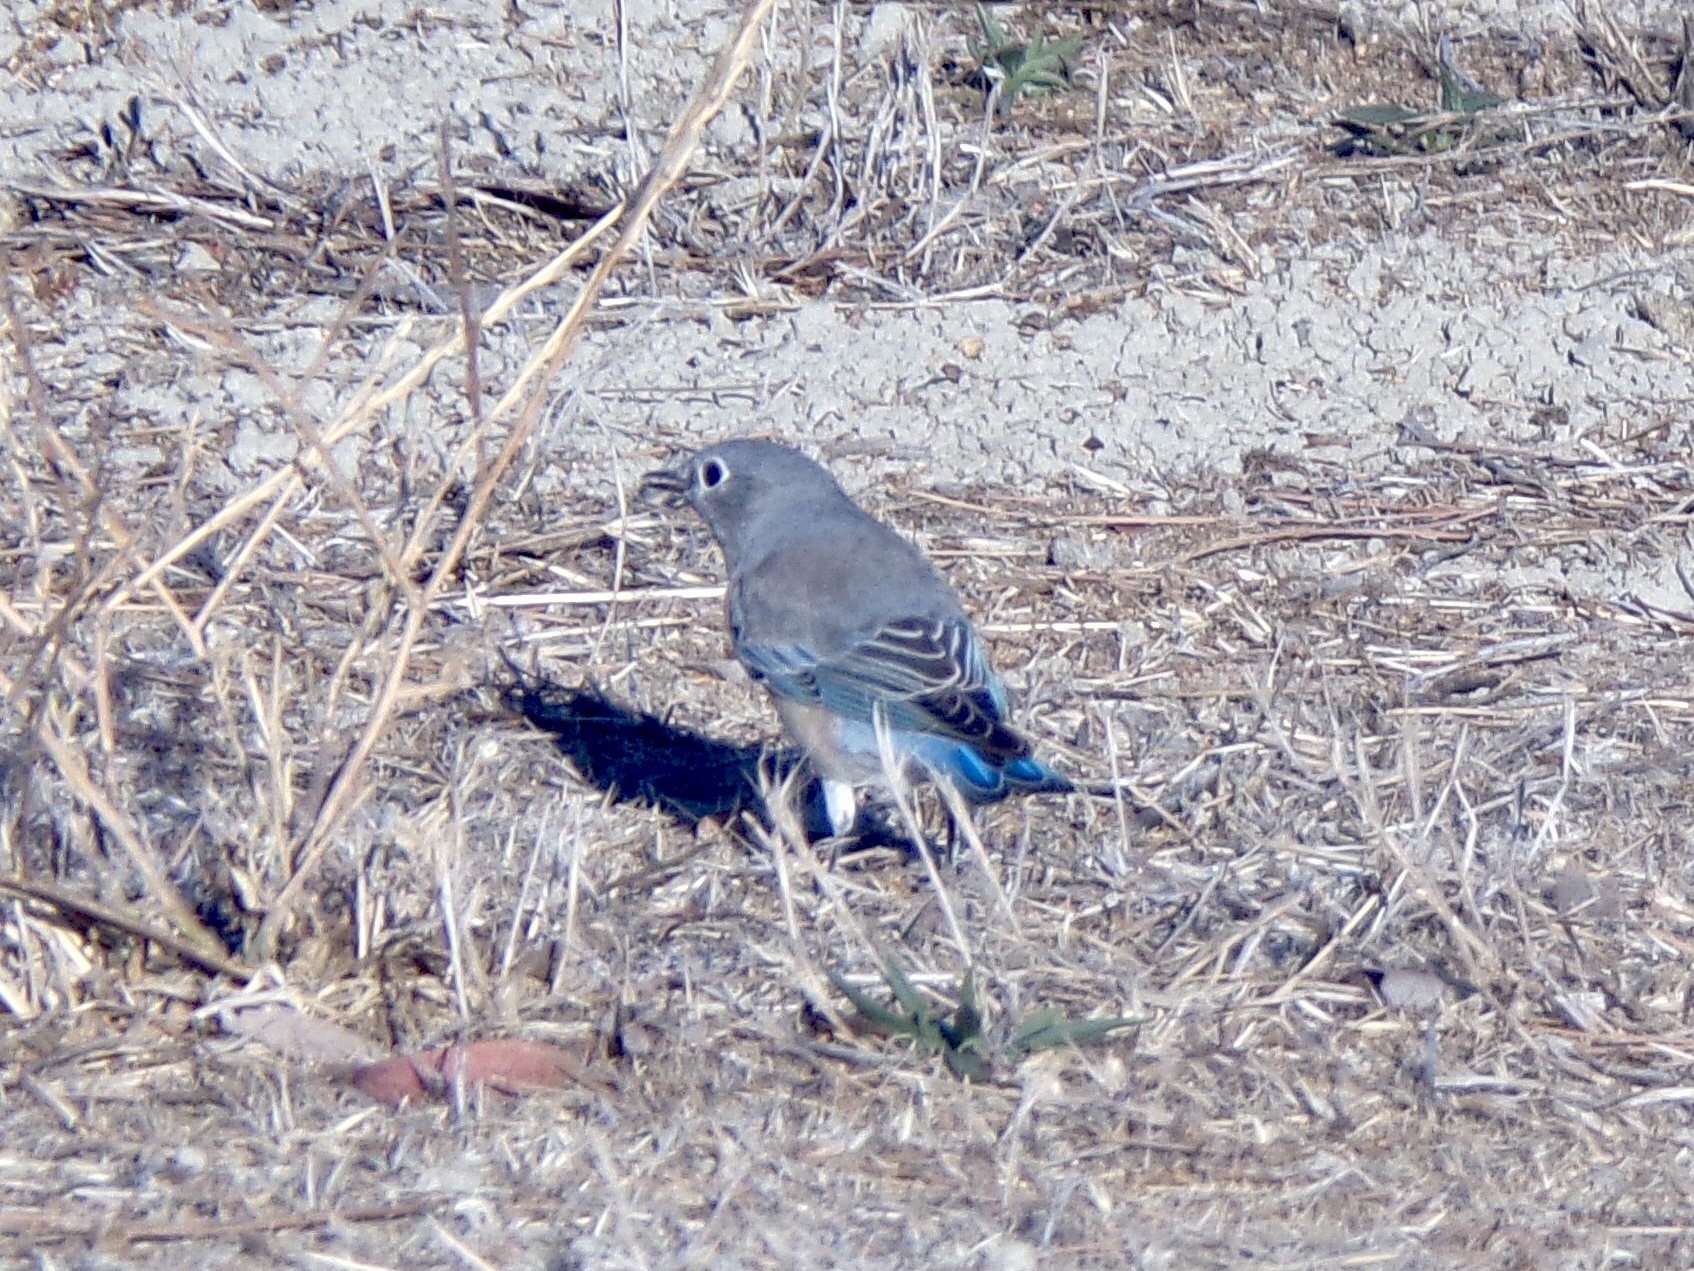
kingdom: Animalia
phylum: Chordata
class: Aves
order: Passeriformes
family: Turdidae
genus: Sialia
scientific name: Sialia mexicana
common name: Western bluebird
